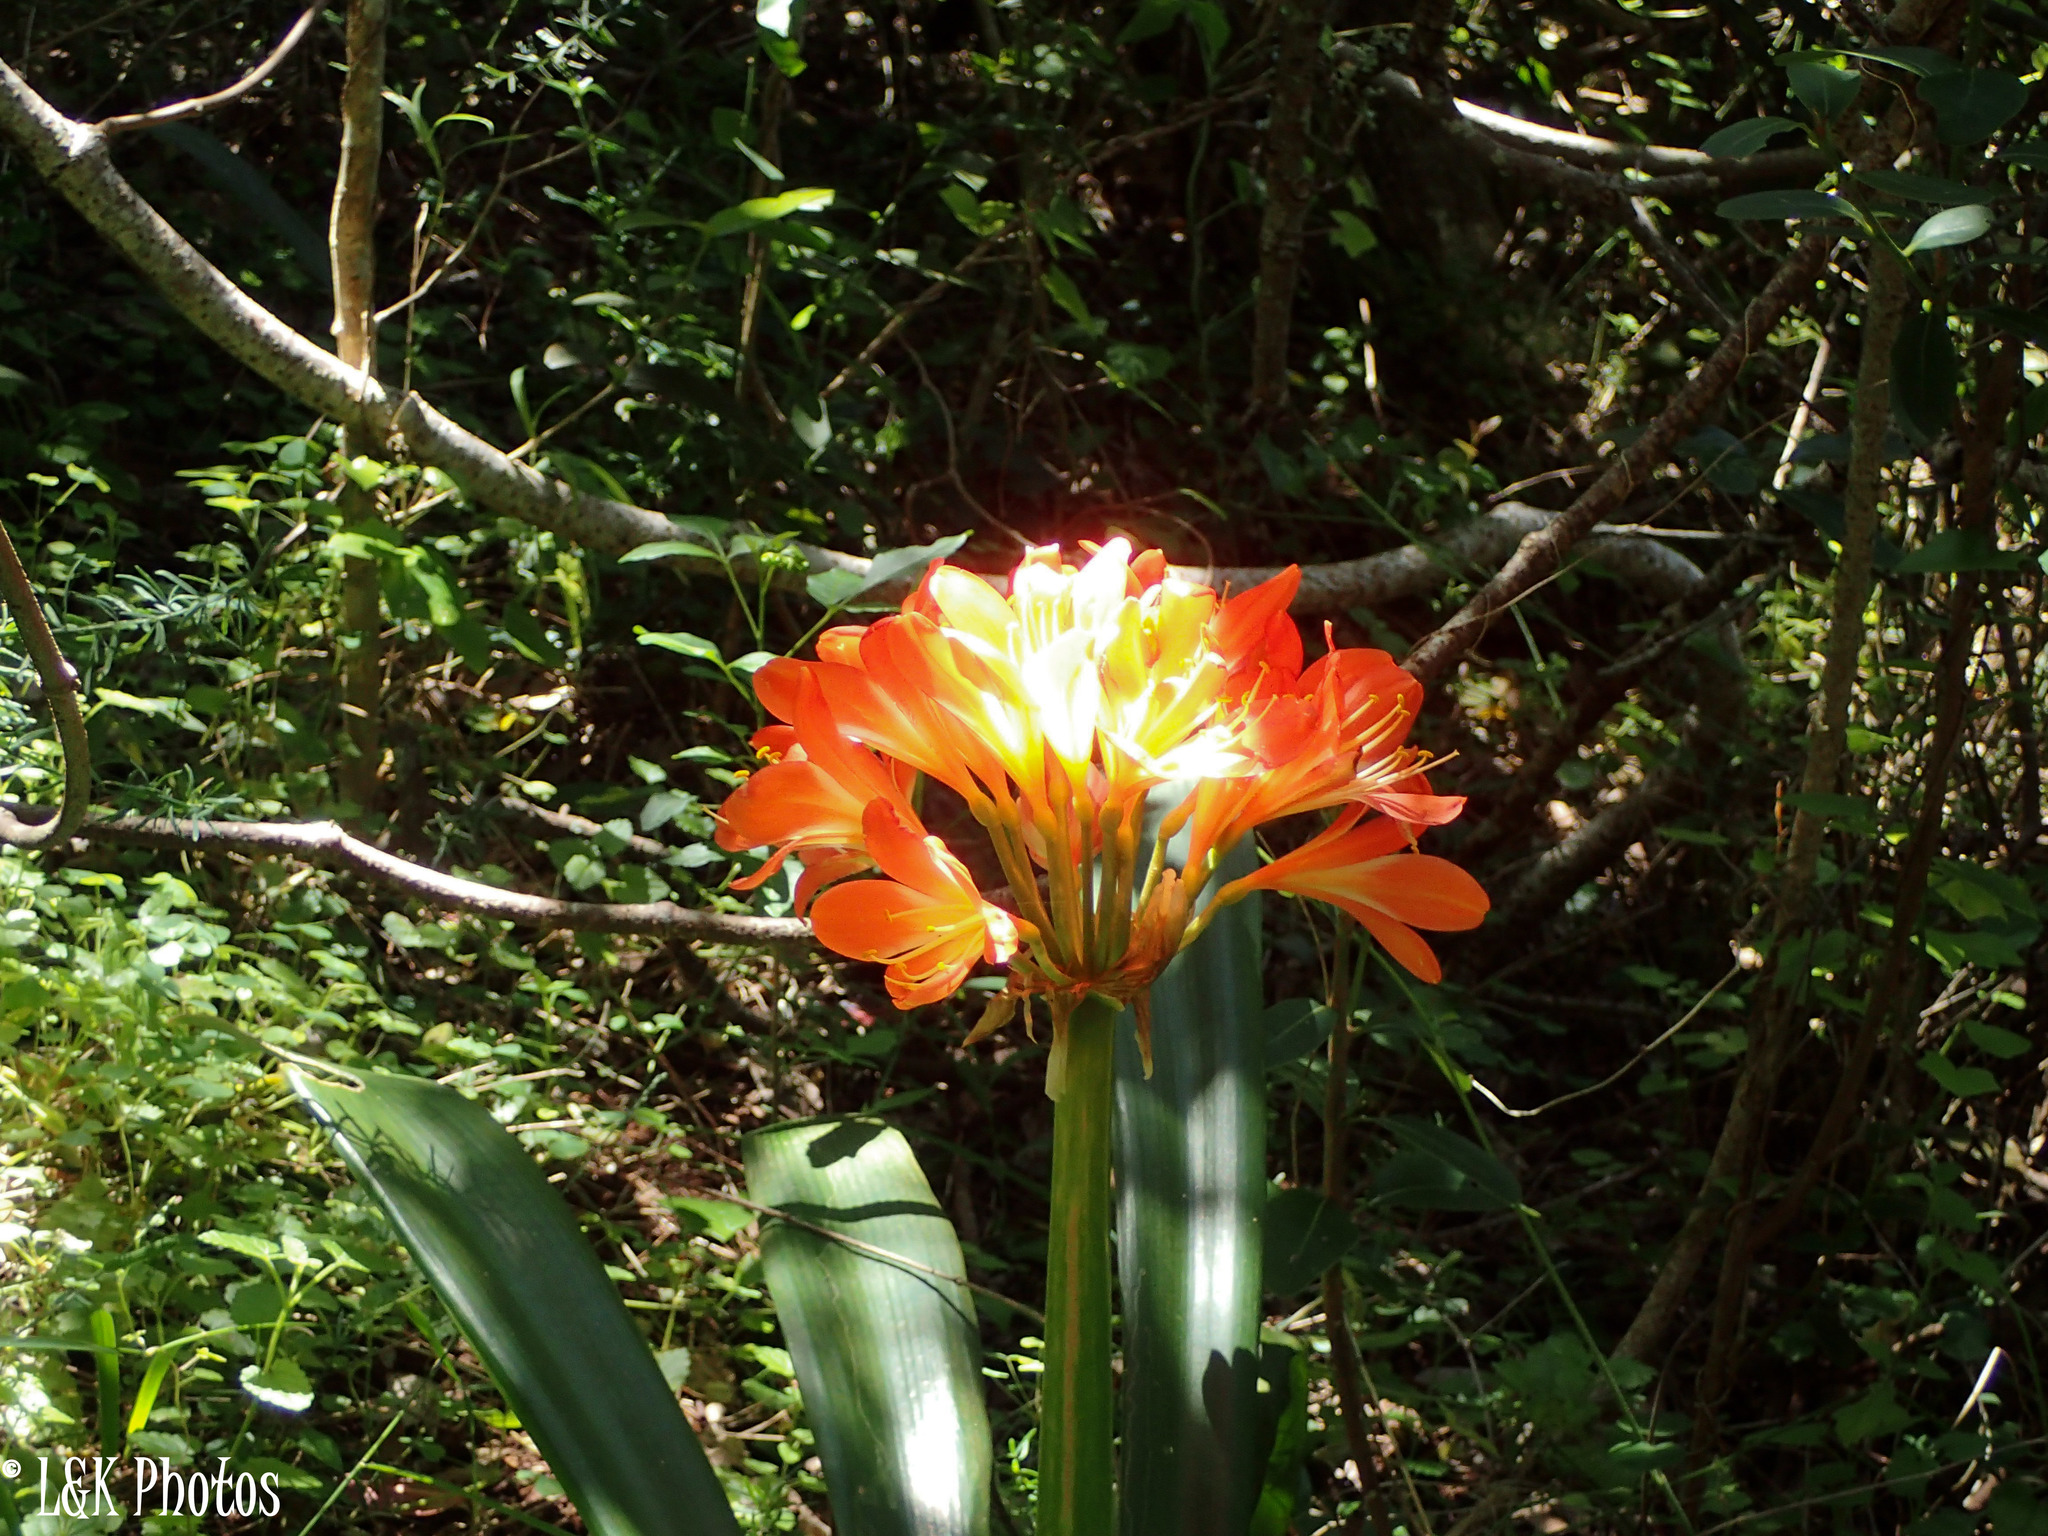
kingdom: Plantae
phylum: Tracheophyta
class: Liliopsida
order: Asparagales
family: Amaryllidaceae
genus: Clivia
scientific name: Clivia miniata
